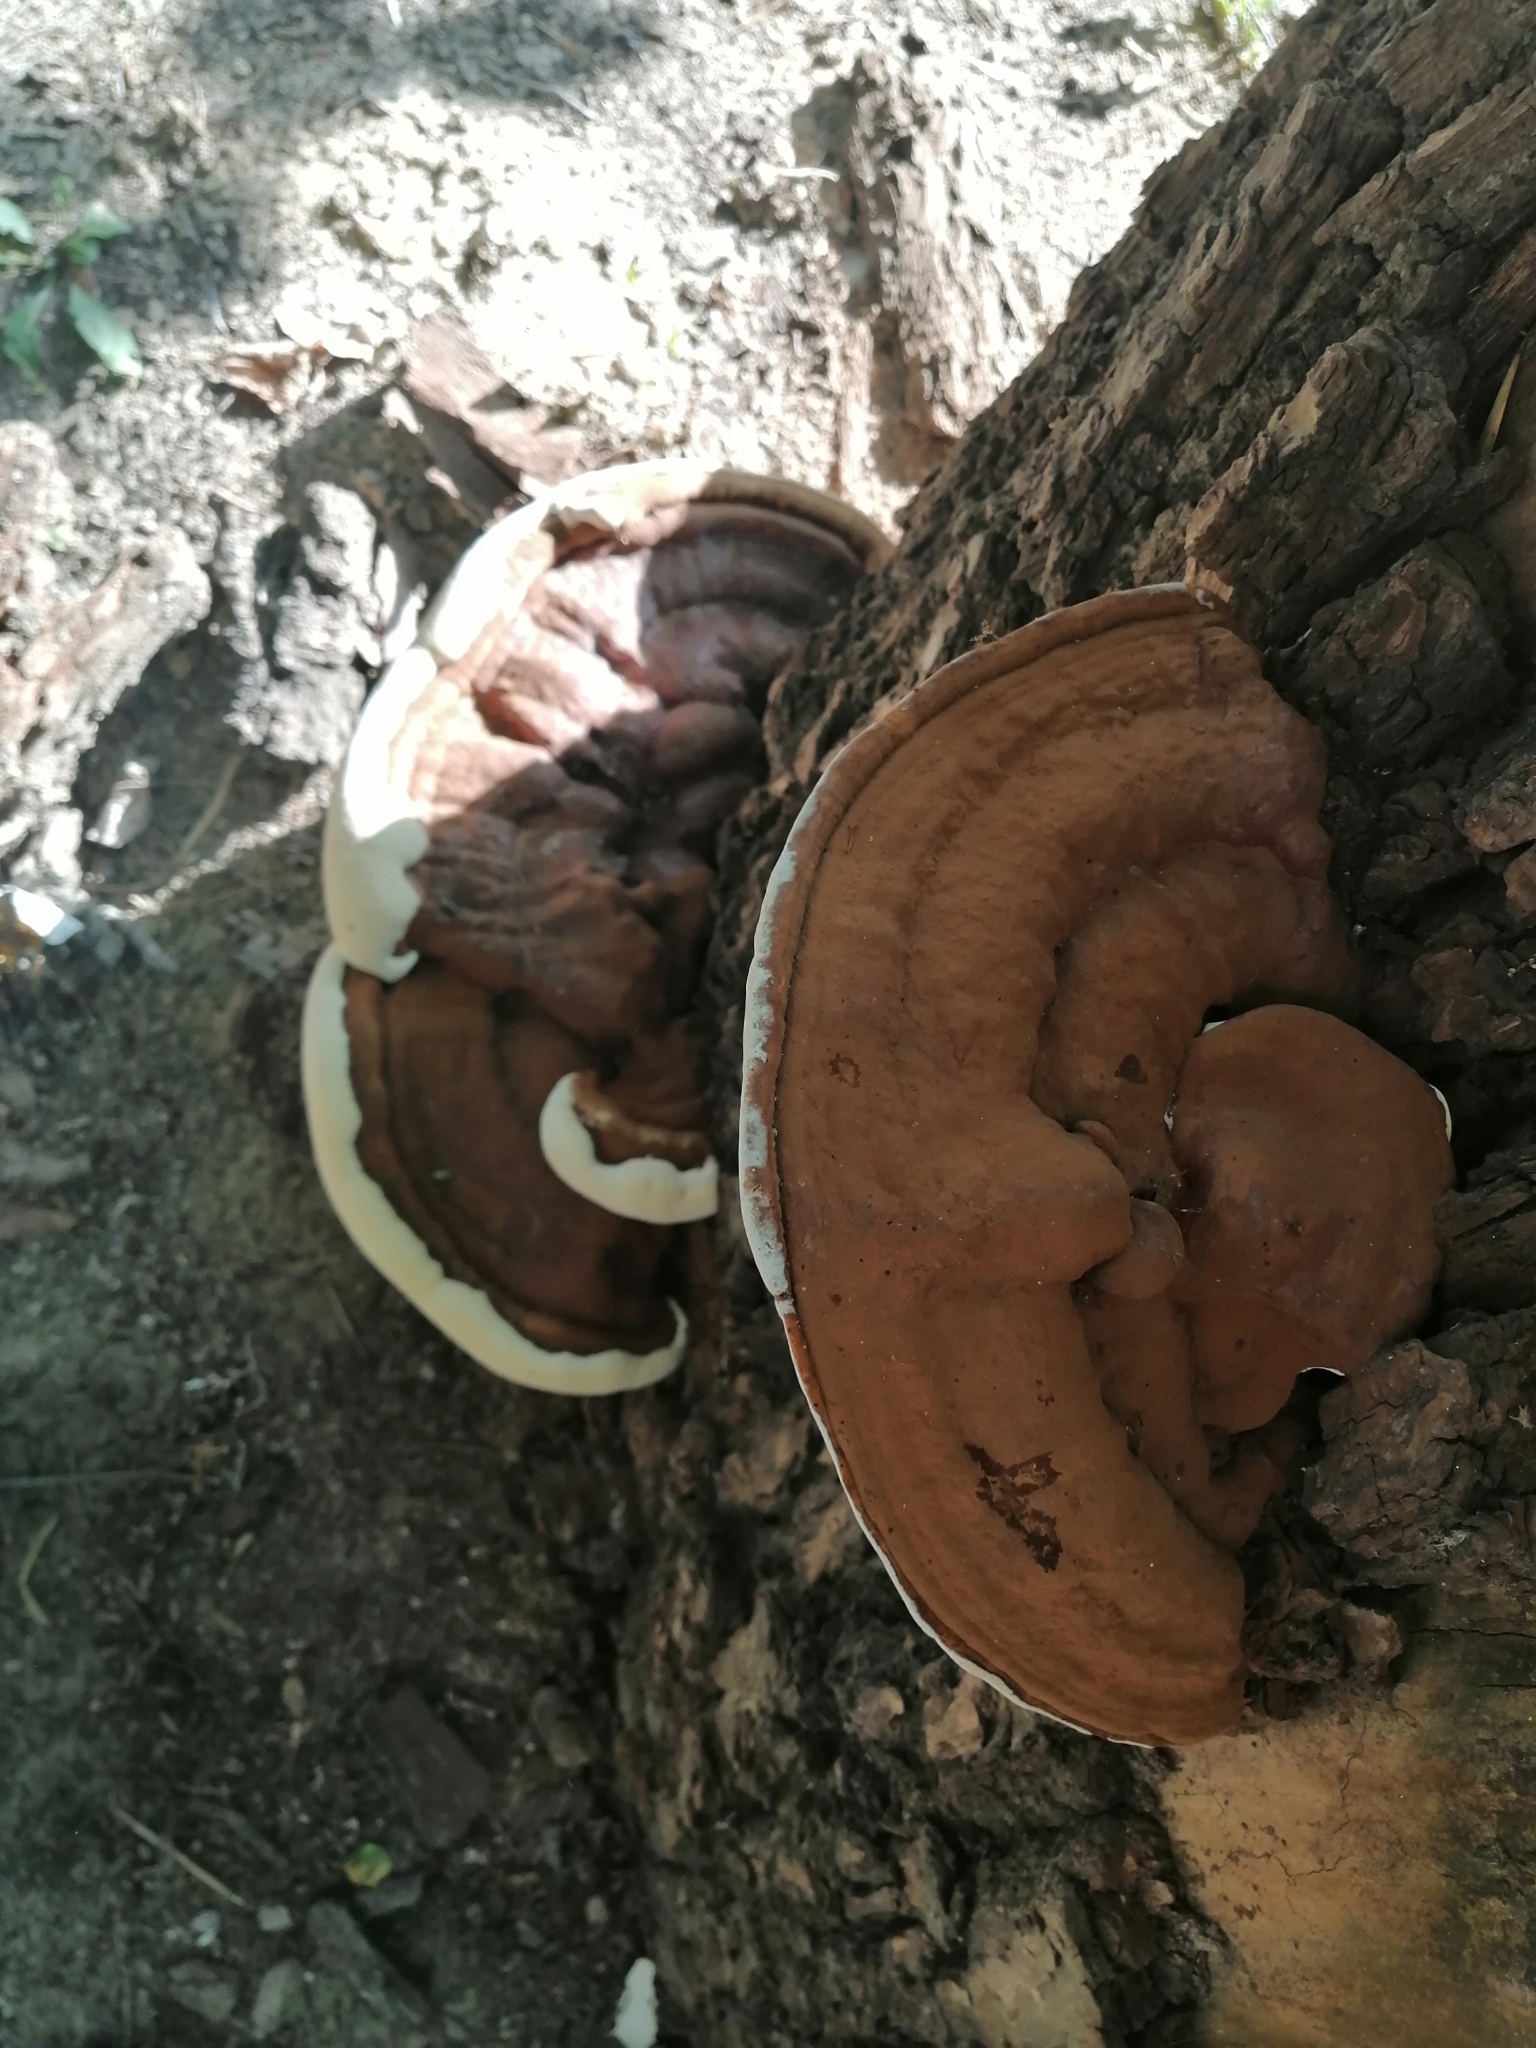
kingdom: Fungi
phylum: Basidiomycota
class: Agaricomycetes
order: Polyporales
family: Polyporaceae
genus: Ganoderma
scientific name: Ganoderma resinaceum
